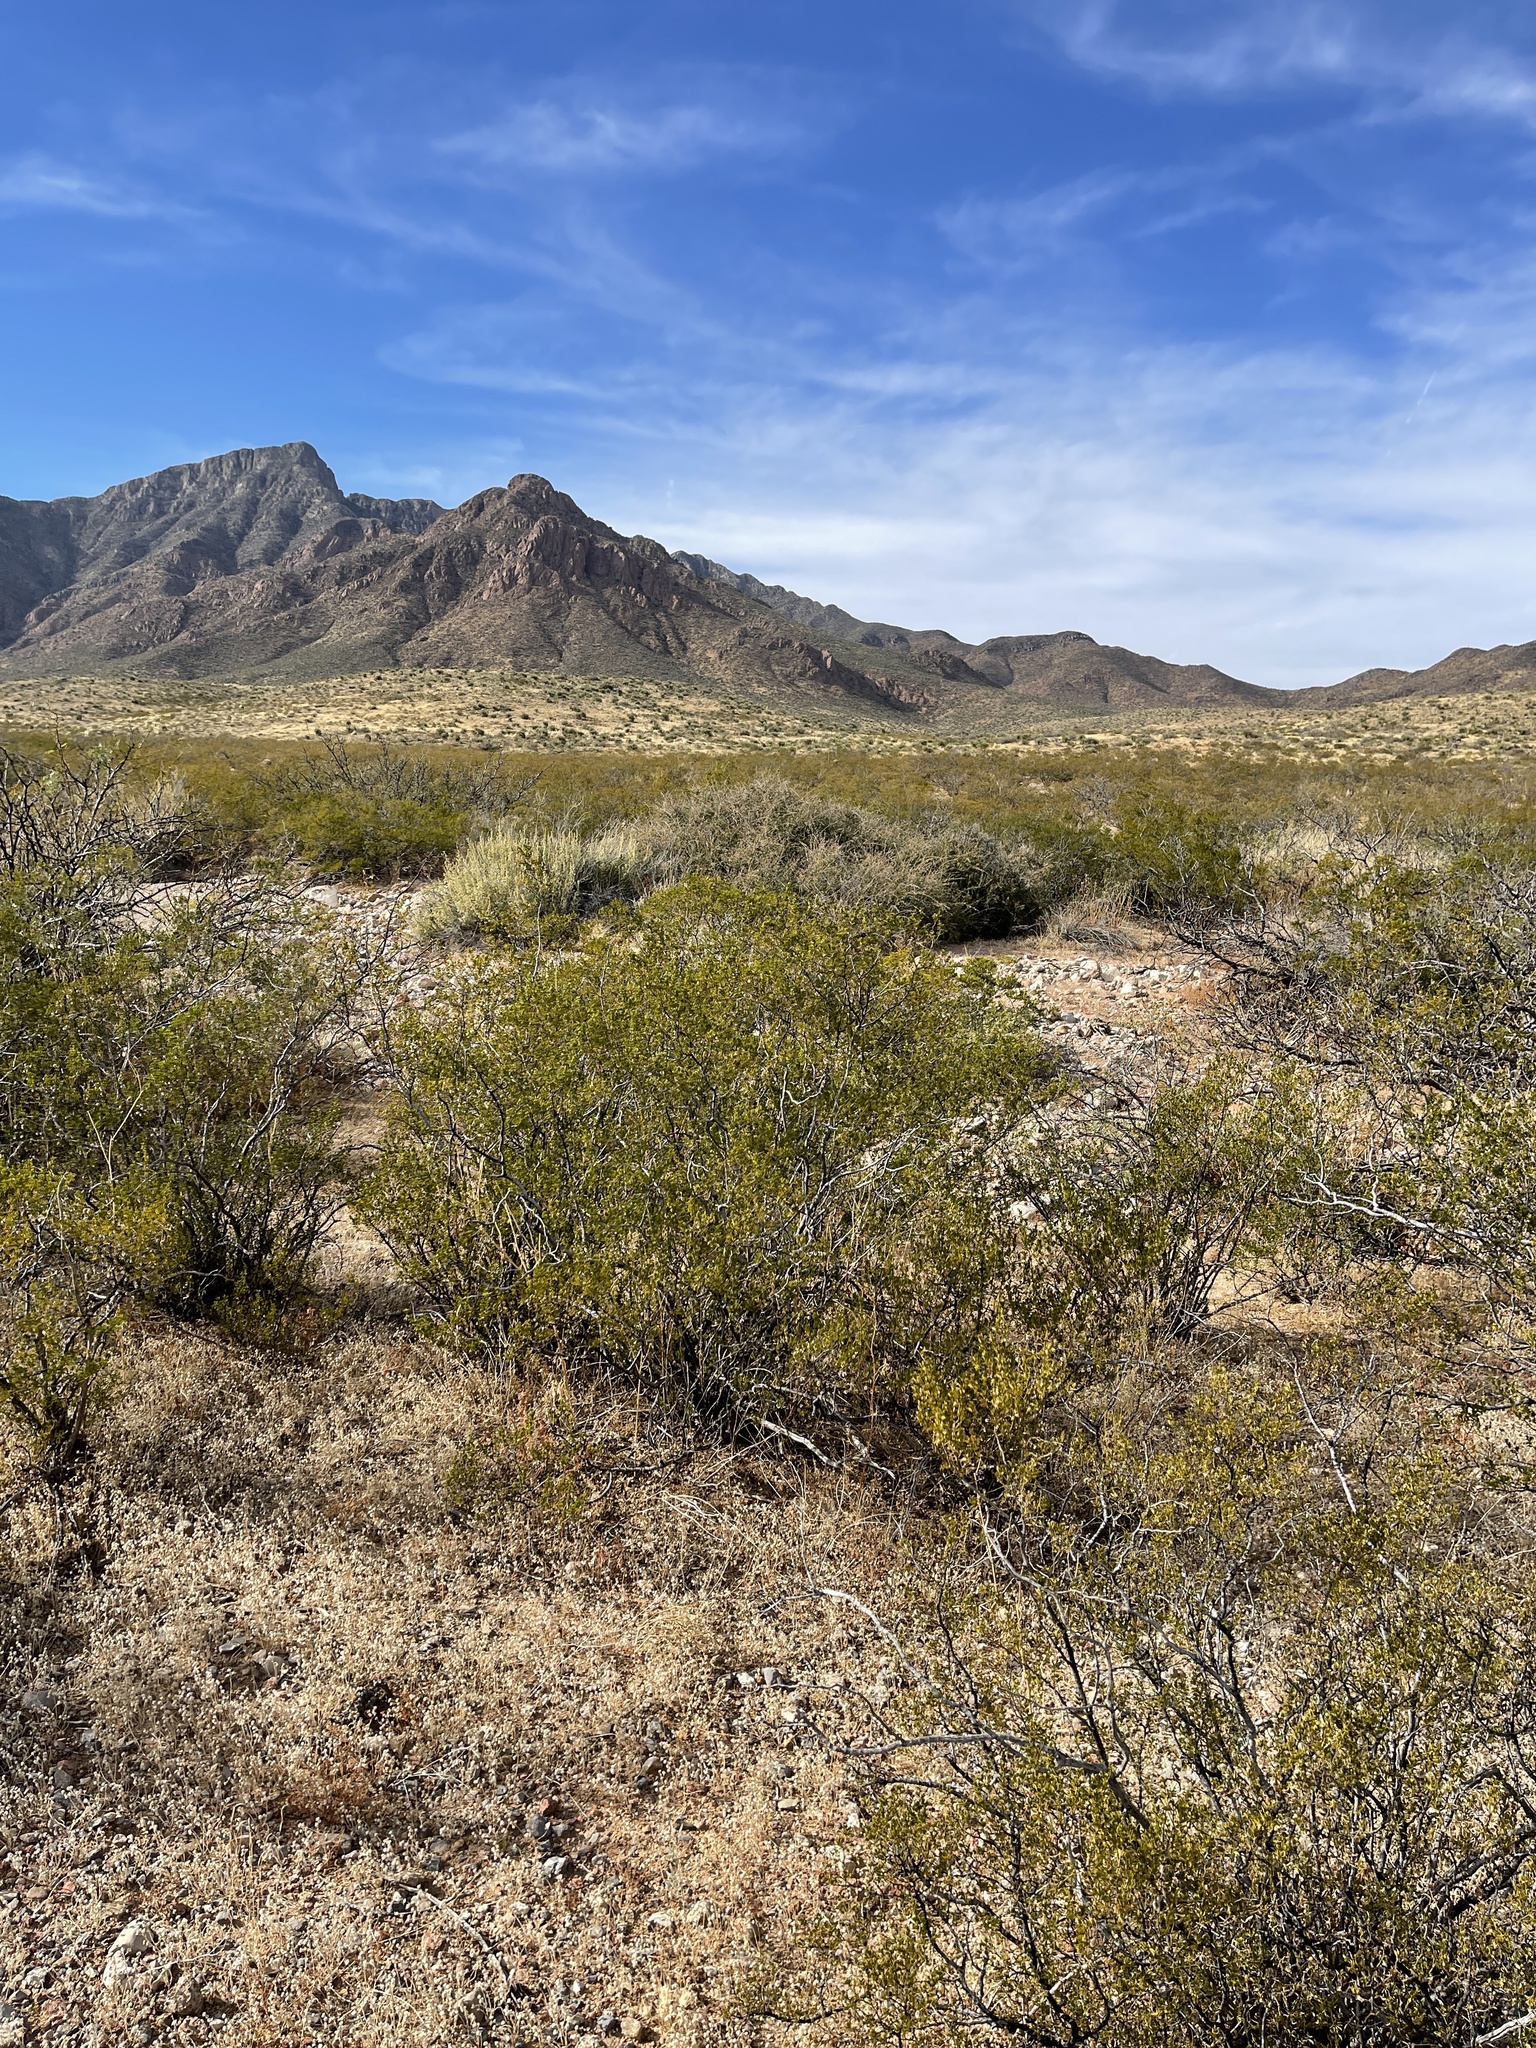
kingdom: Plantae
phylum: Tracheophyta
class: Magnoliopsida
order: Zygophyllales
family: Zygophyllaceae
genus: Larrea
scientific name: Larrea tridentata
